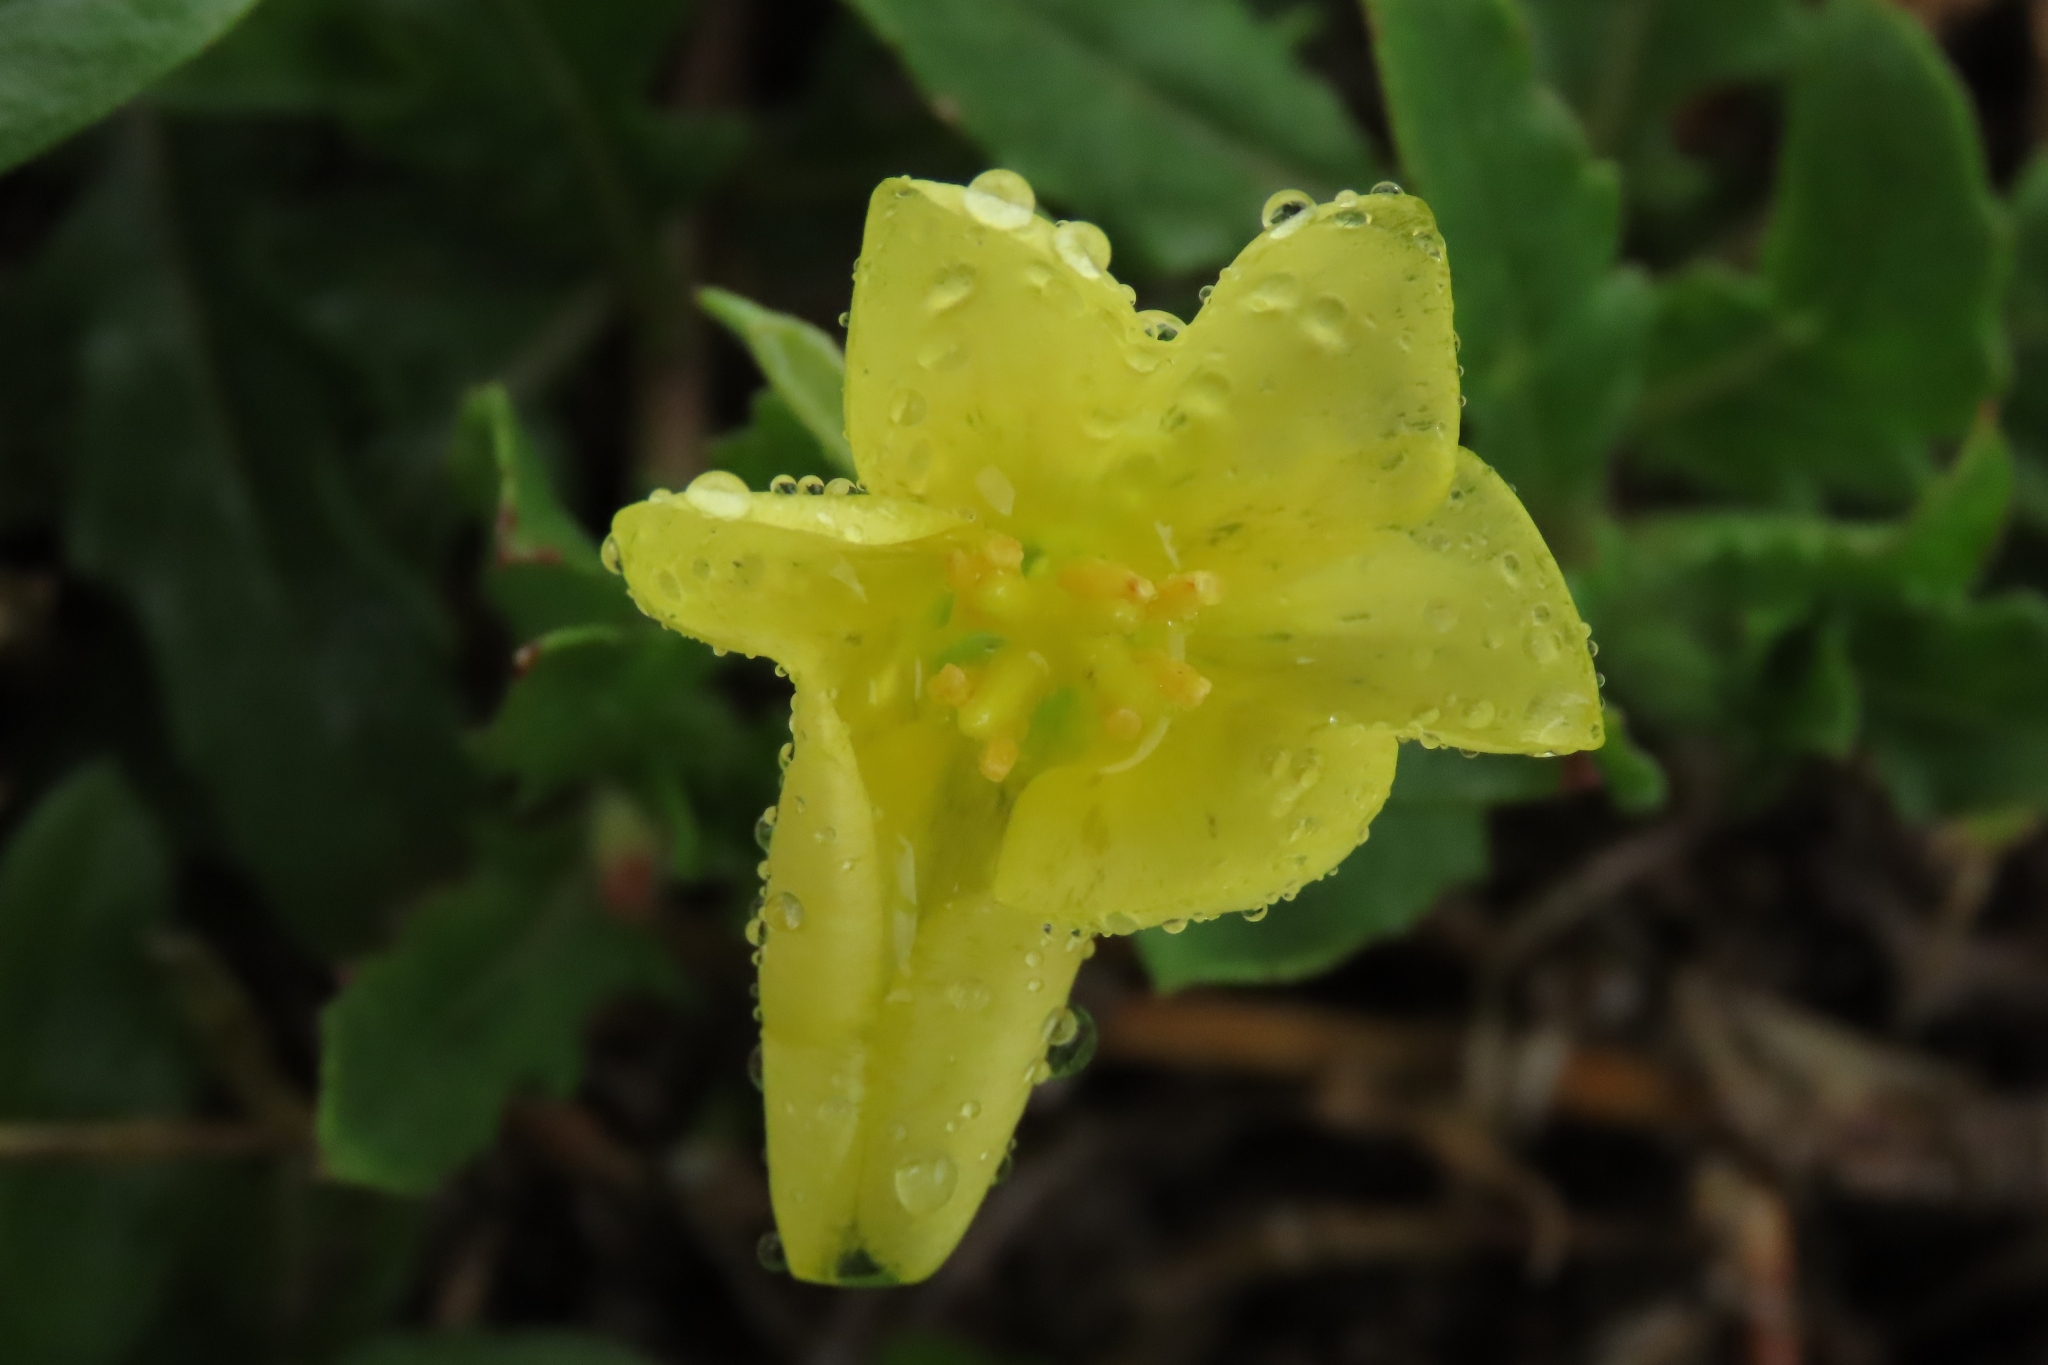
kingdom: Plantae
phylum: Tracheophyta
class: Magnoliopsida
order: Myrtales
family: Onagraceae
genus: Oenothera
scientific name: Oenothera laciniata
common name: Cut-leaved evening-primrose
